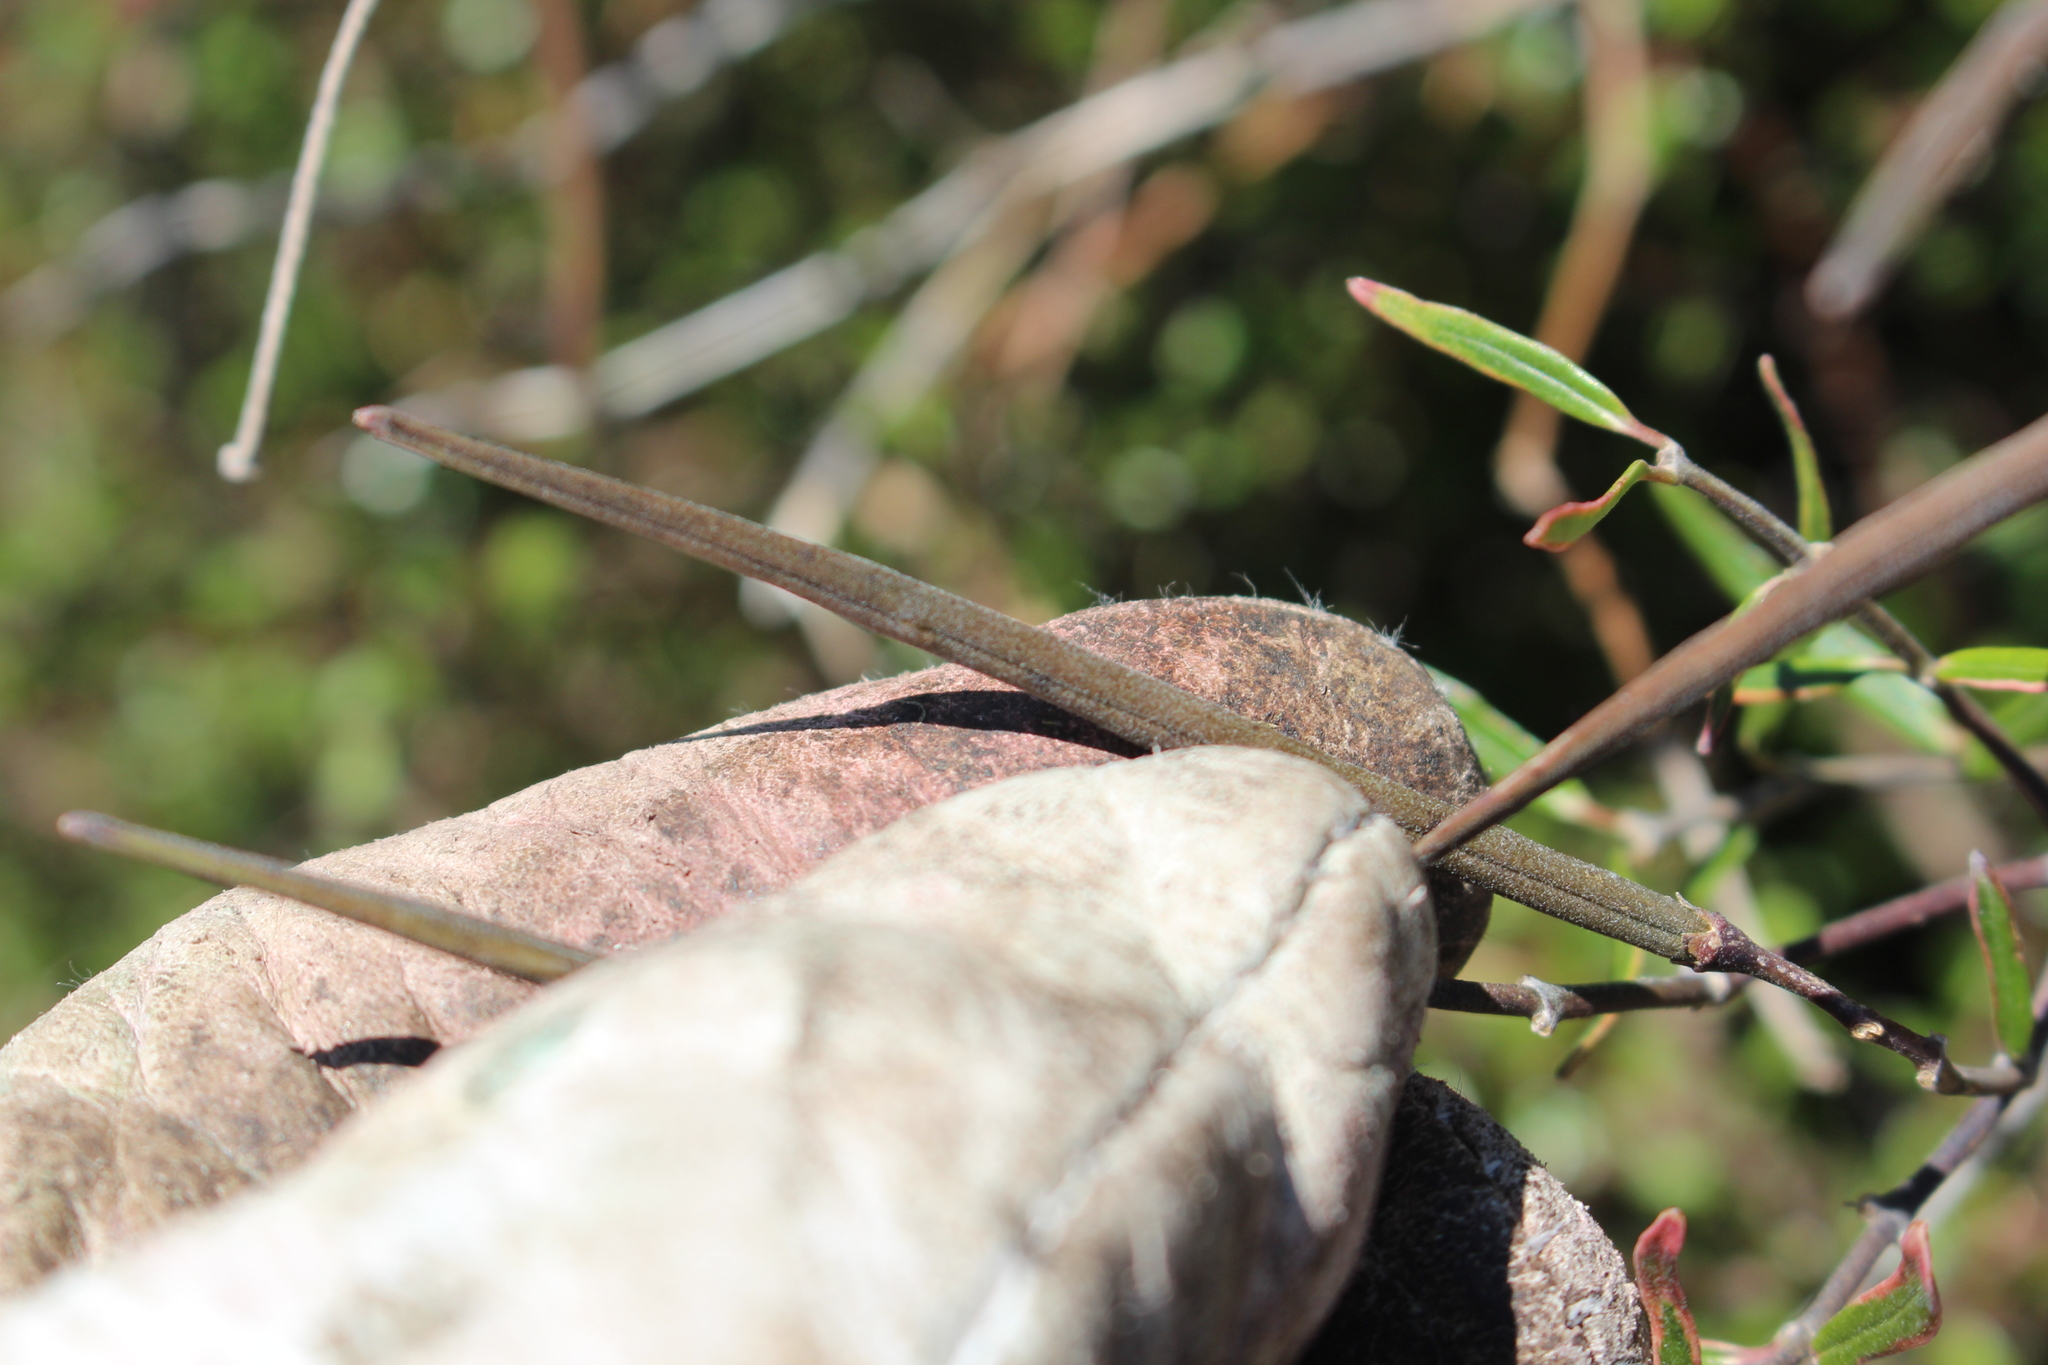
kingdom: Plantae
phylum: Tracheophyta
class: Magnoliopsida
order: Gentianales
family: Apocynaceae
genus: Parsonsia
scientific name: Parsonsia capsularis
